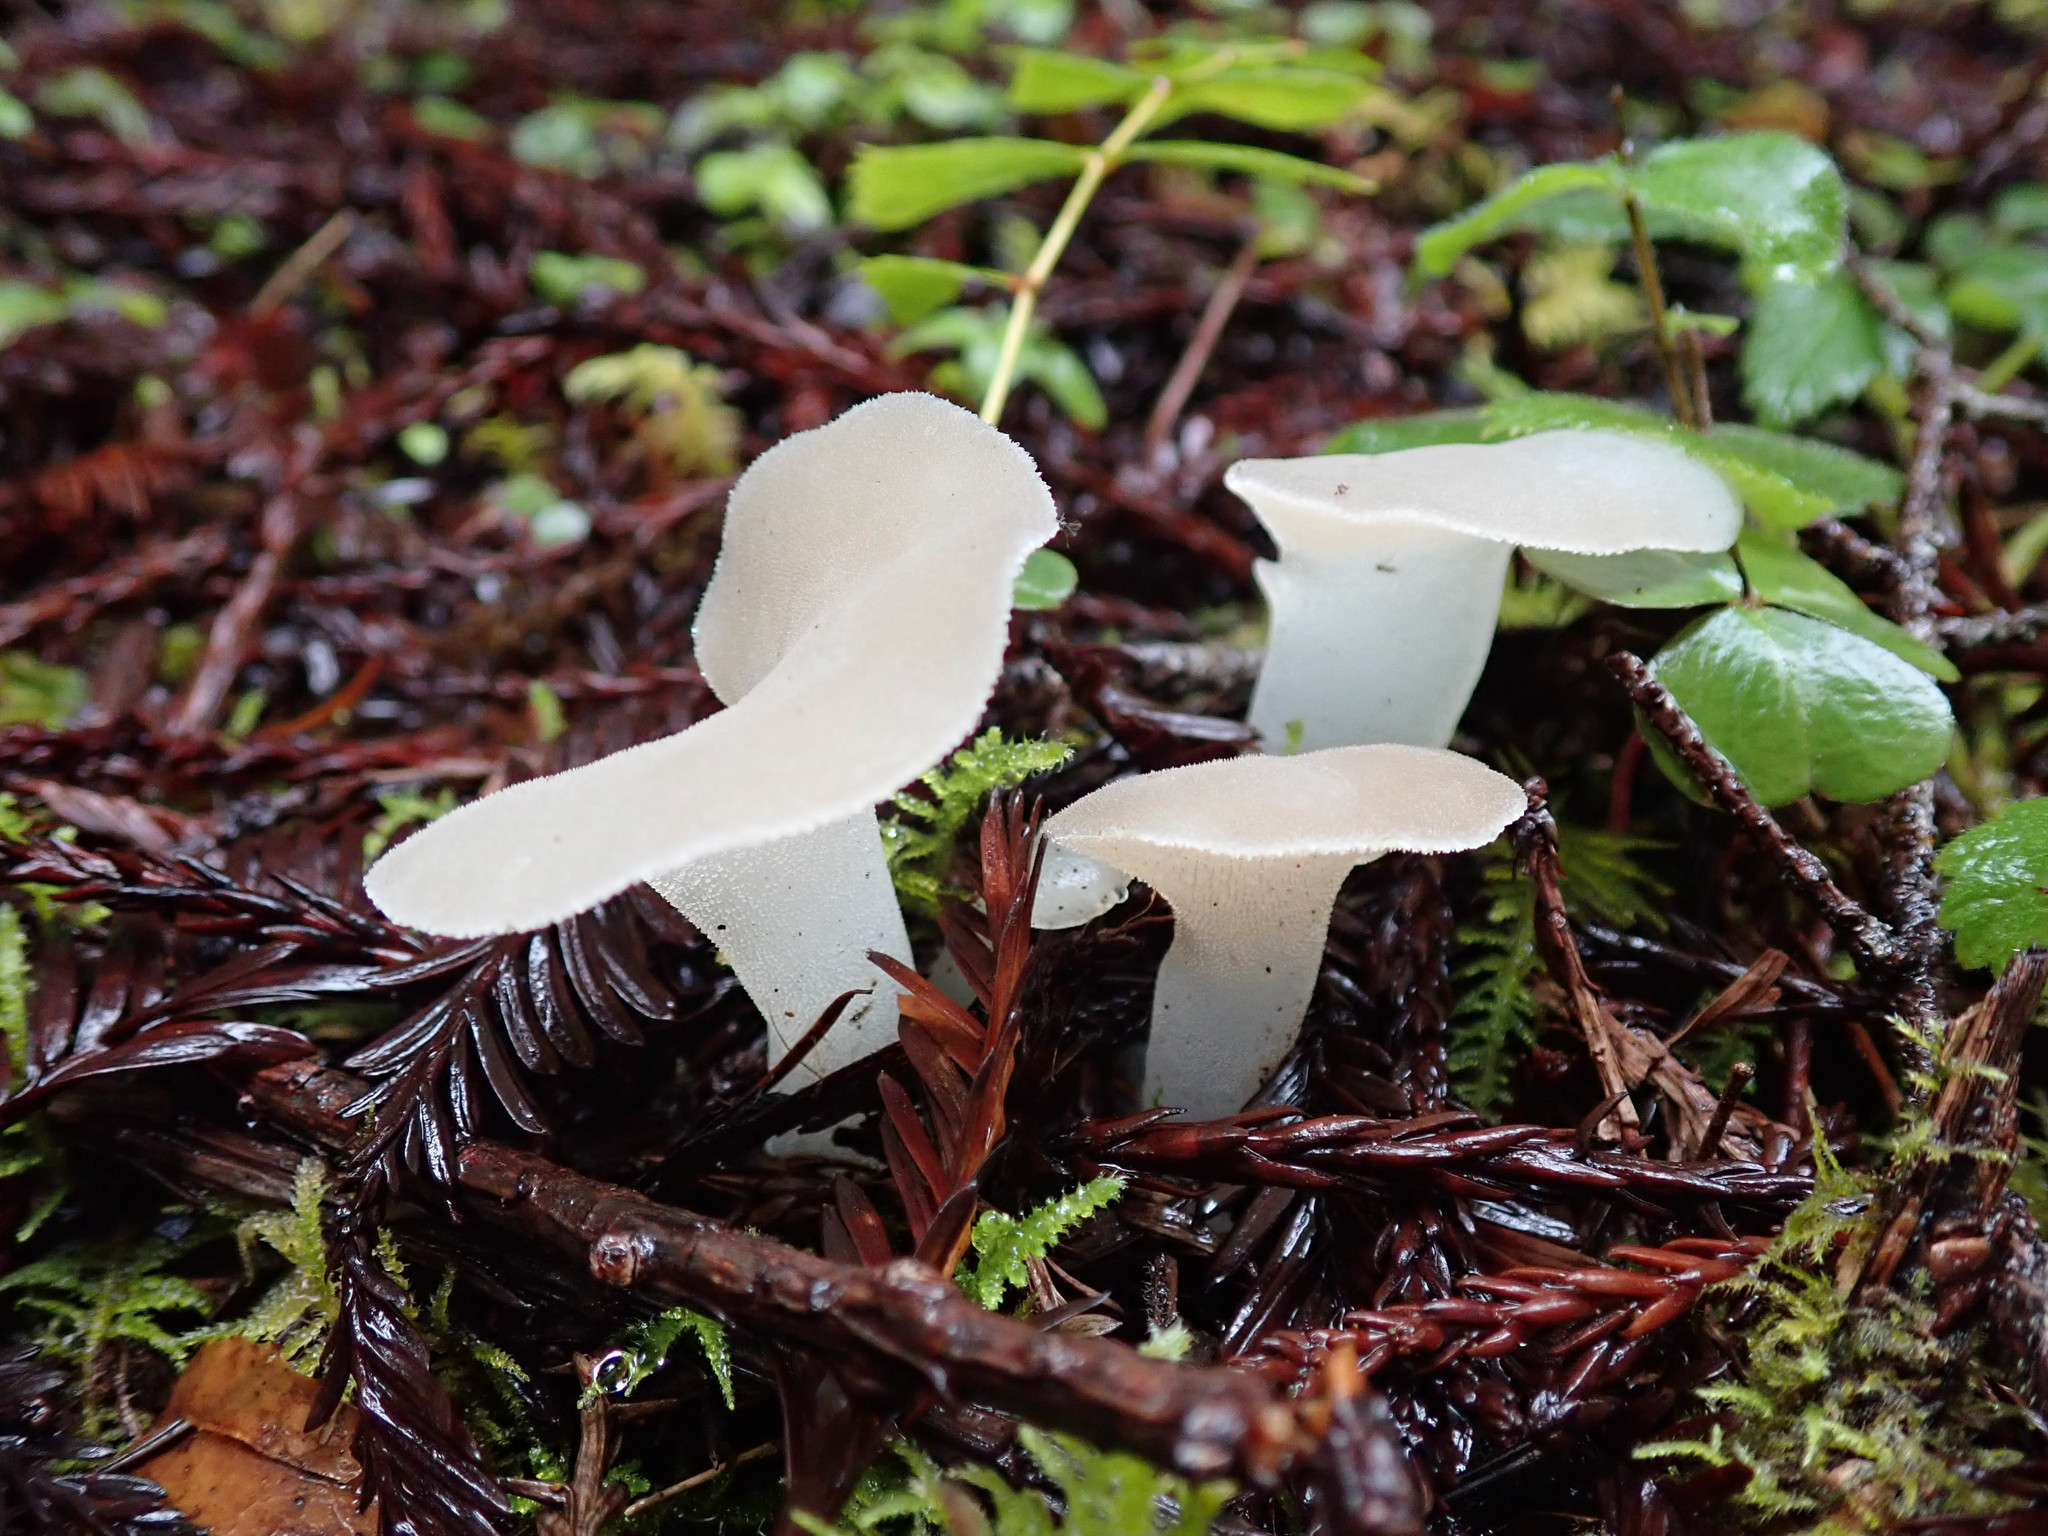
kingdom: Fungi
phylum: Basidiomycota
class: Agaricomycetes
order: Auriculariales
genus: Pseudohydnum
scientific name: Pseudohydnum gelatinosum
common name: Jelly tongue
